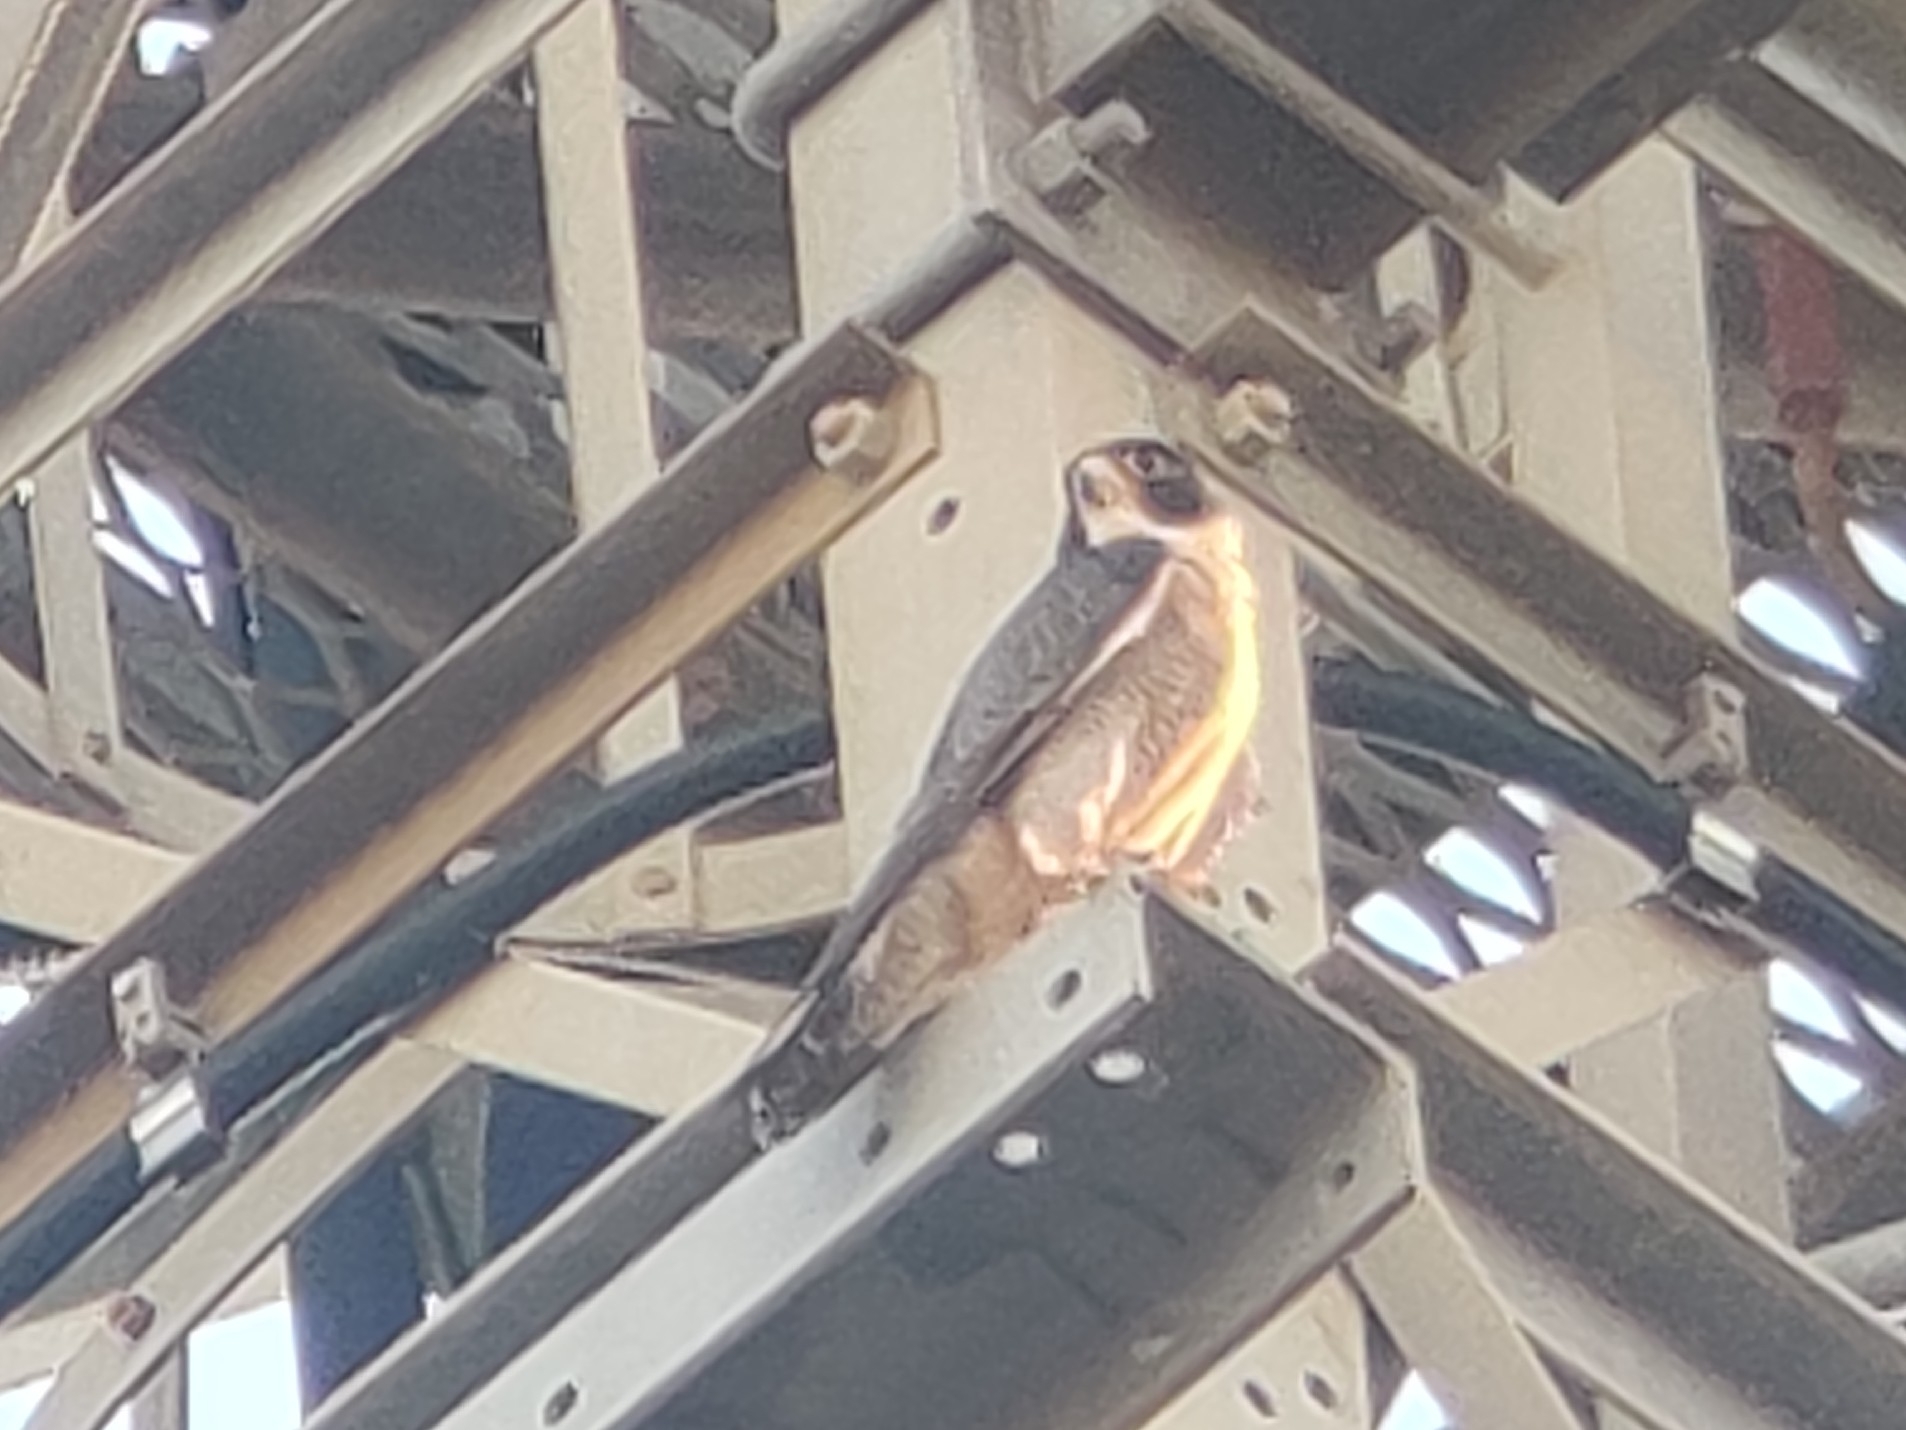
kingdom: Animalia
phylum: Chordata
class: Aves
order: Falconiformes
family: Falconidae
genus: Falco
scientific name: Falco peregrinus
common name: Peregrine falcon
